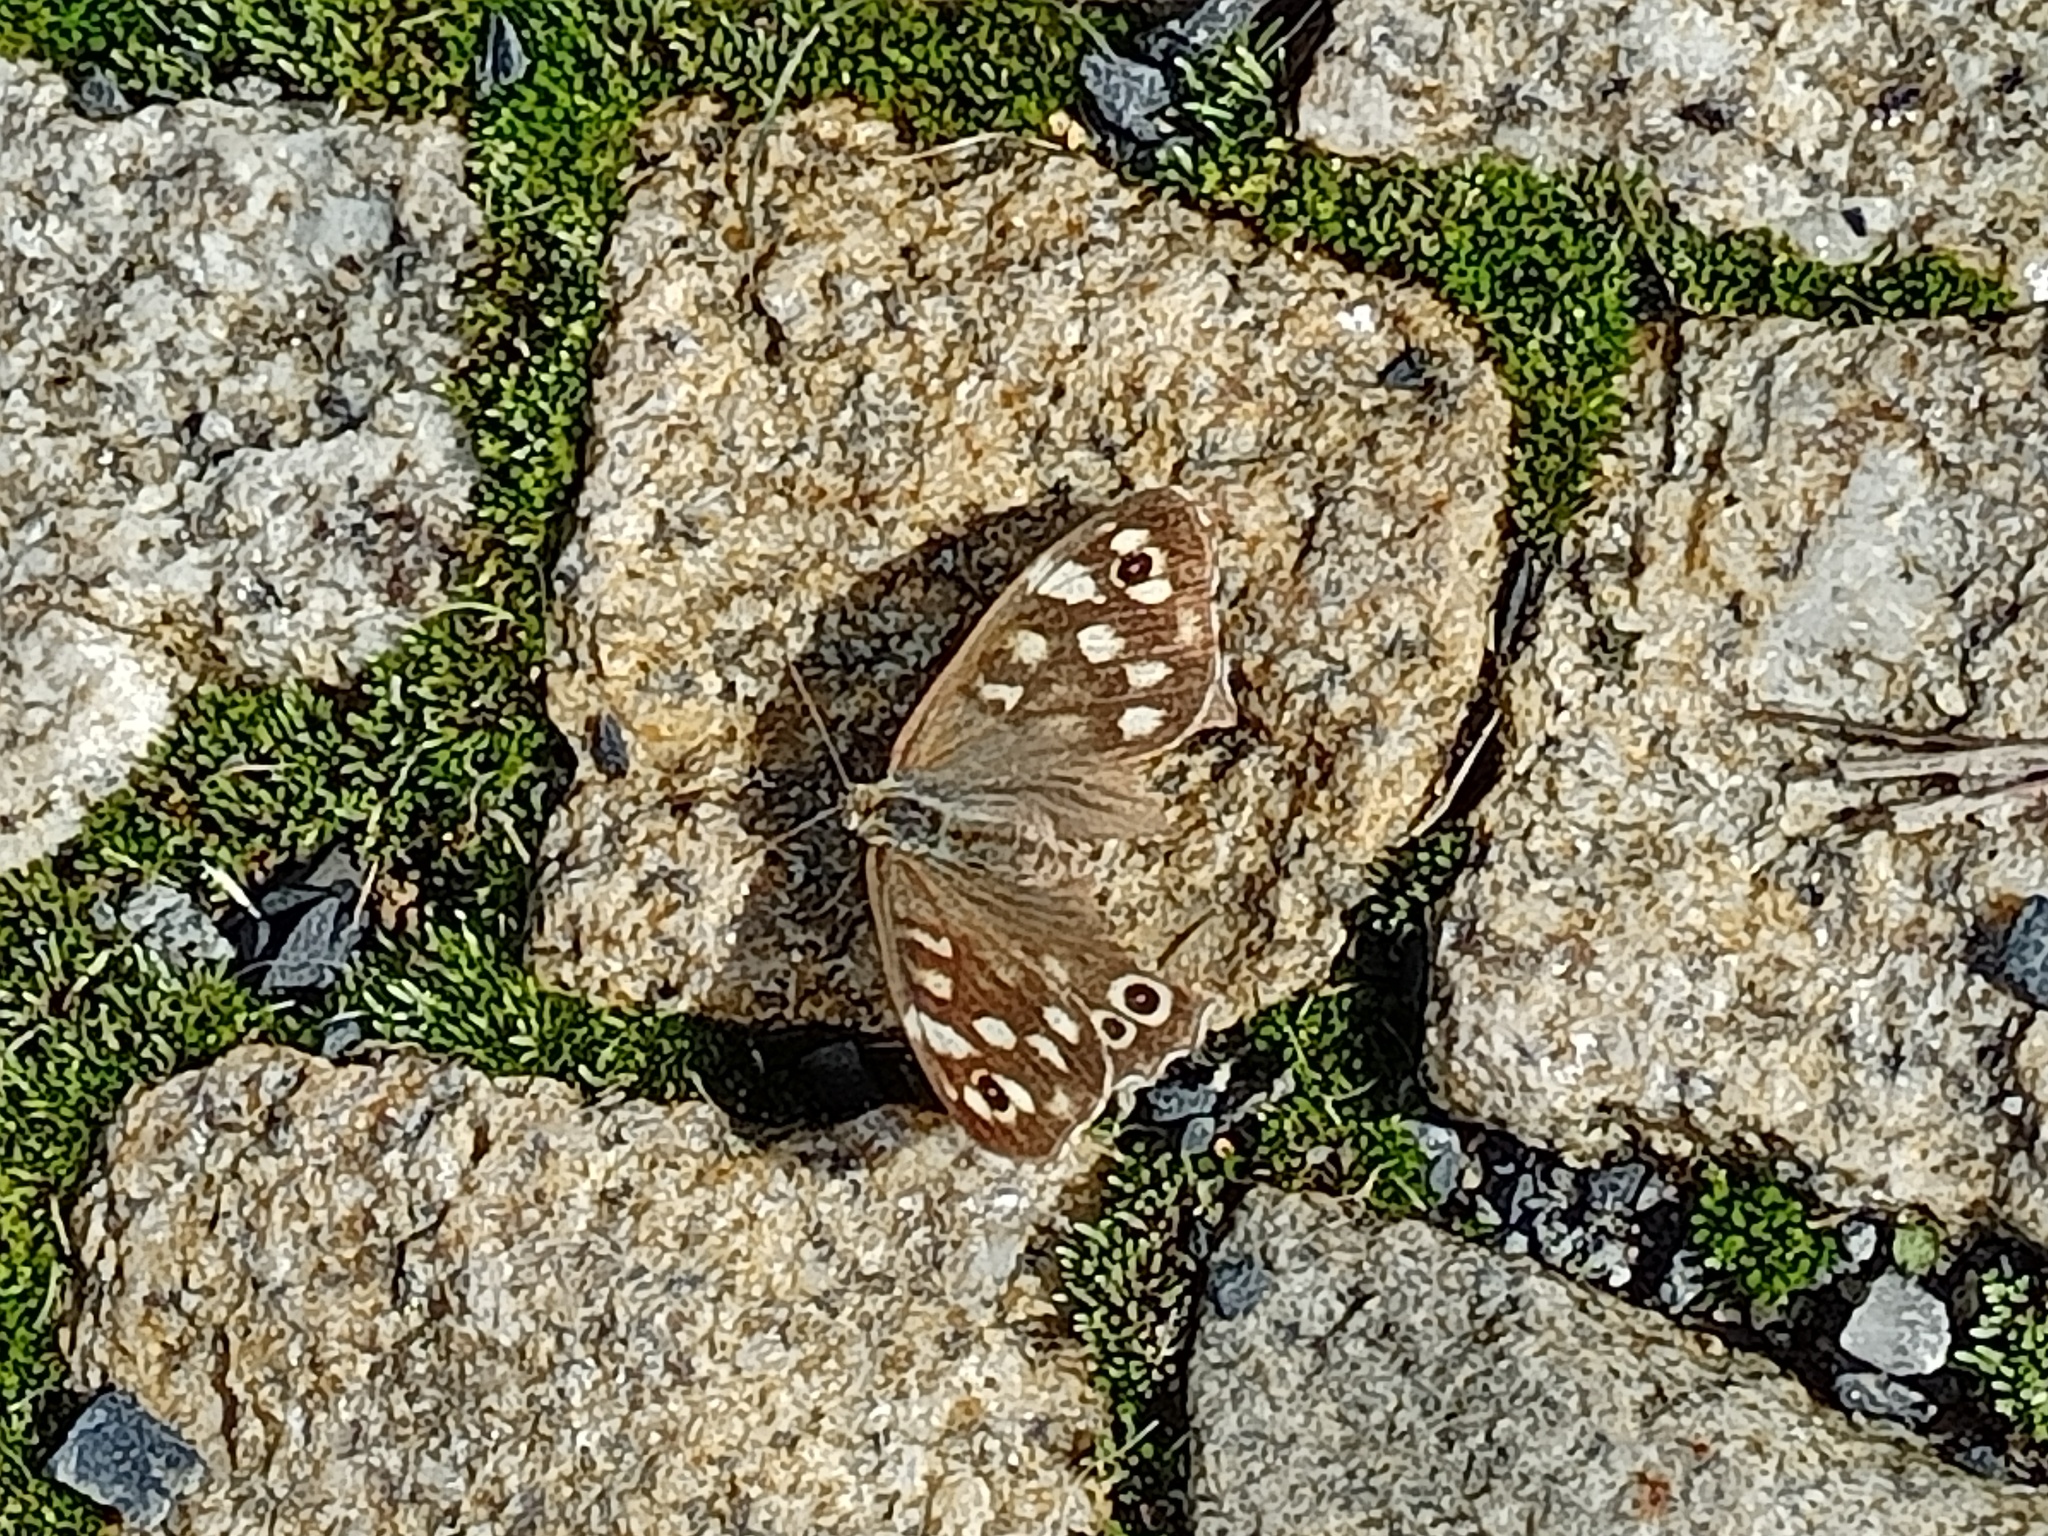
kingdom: Animalia
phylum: Arthropoda
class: Insecta
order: Lepidoptera
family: Nymphalidae
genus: Pararge
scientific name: Pararge aegeria
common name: Speckled wood
